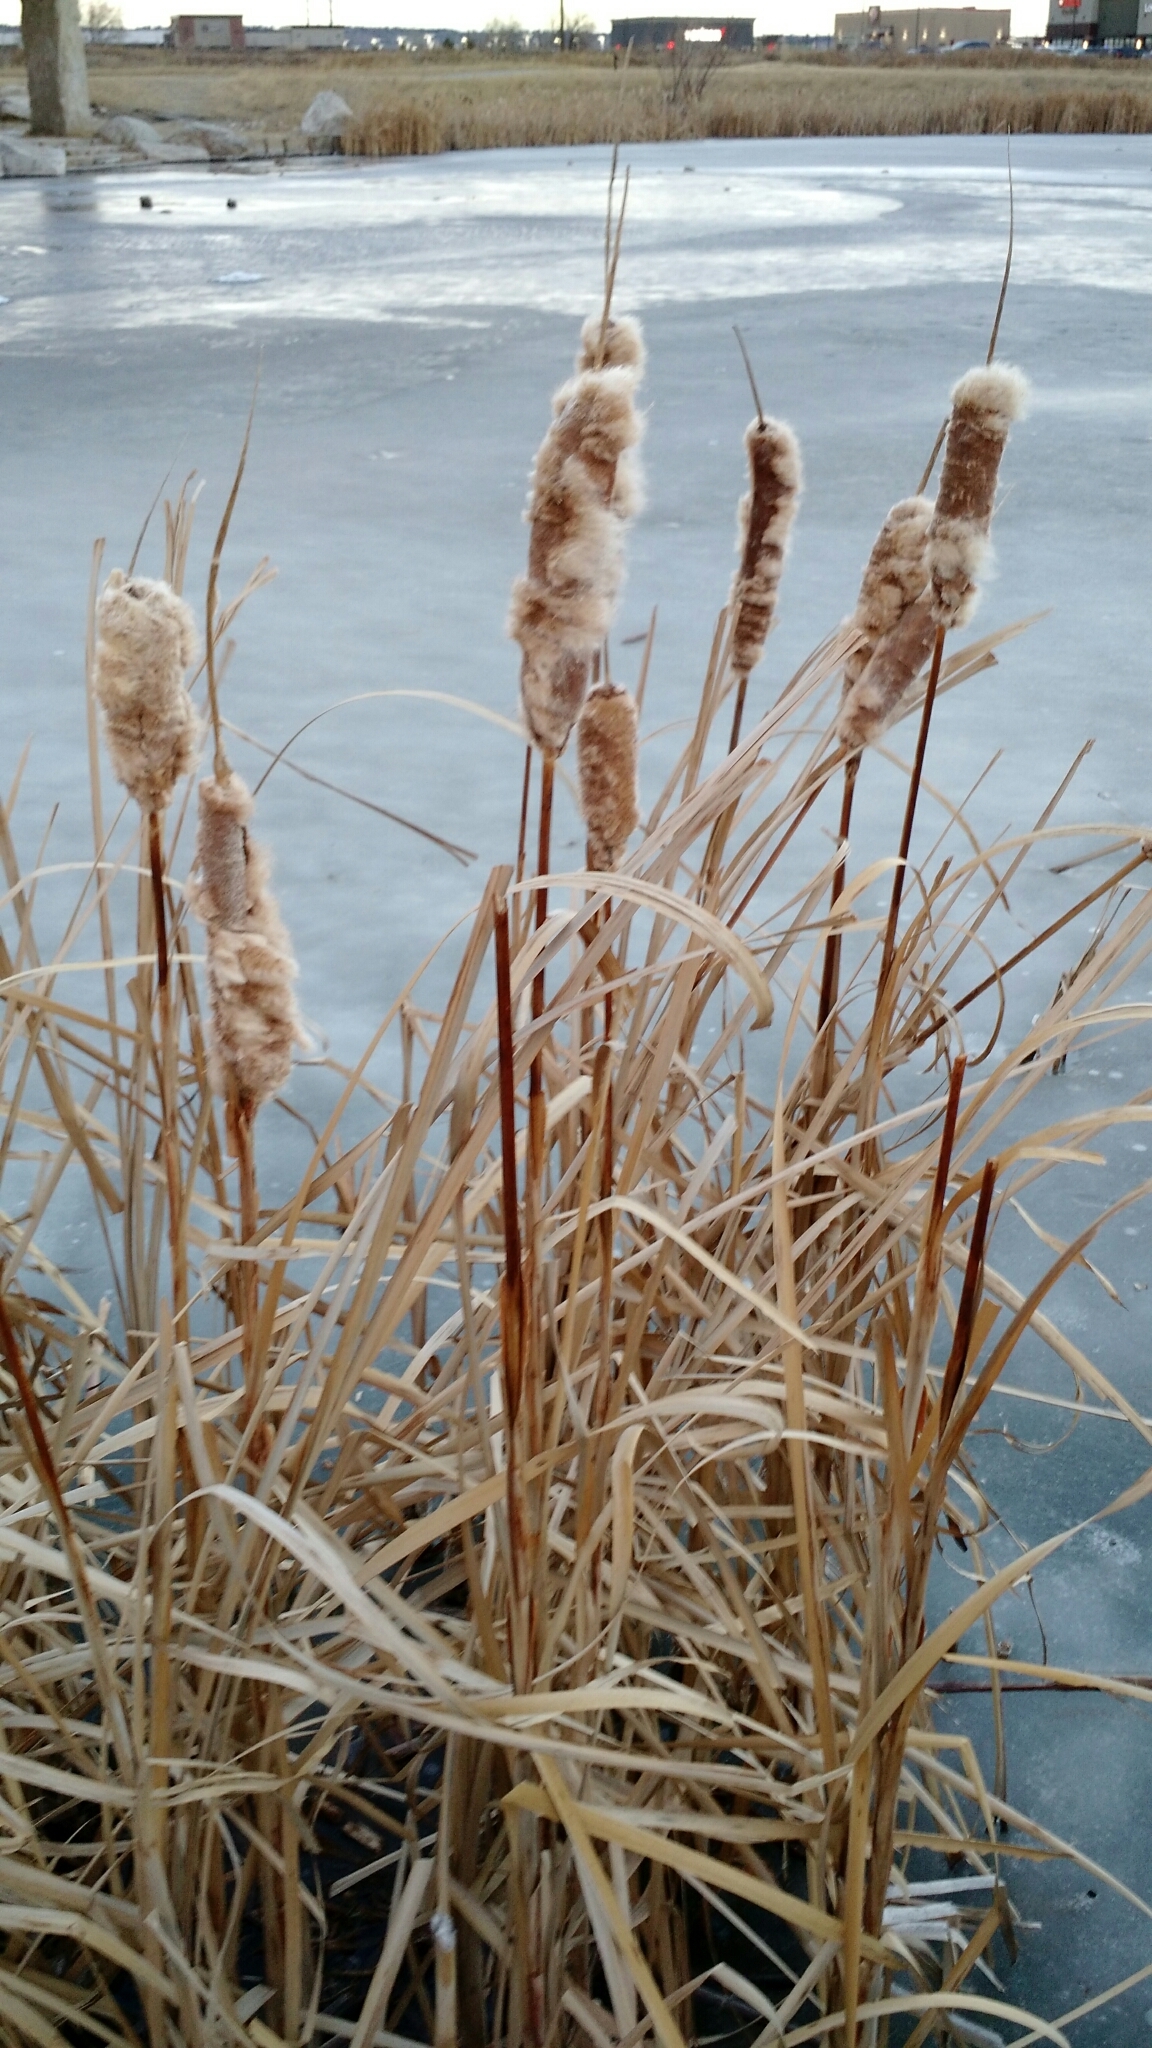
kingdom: Plantae
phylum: Tracheophyta
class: Liliopsida
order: Poales
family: Typhaceae
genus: Typha
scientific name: Typha latifolia
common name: Broadleaf cattail
